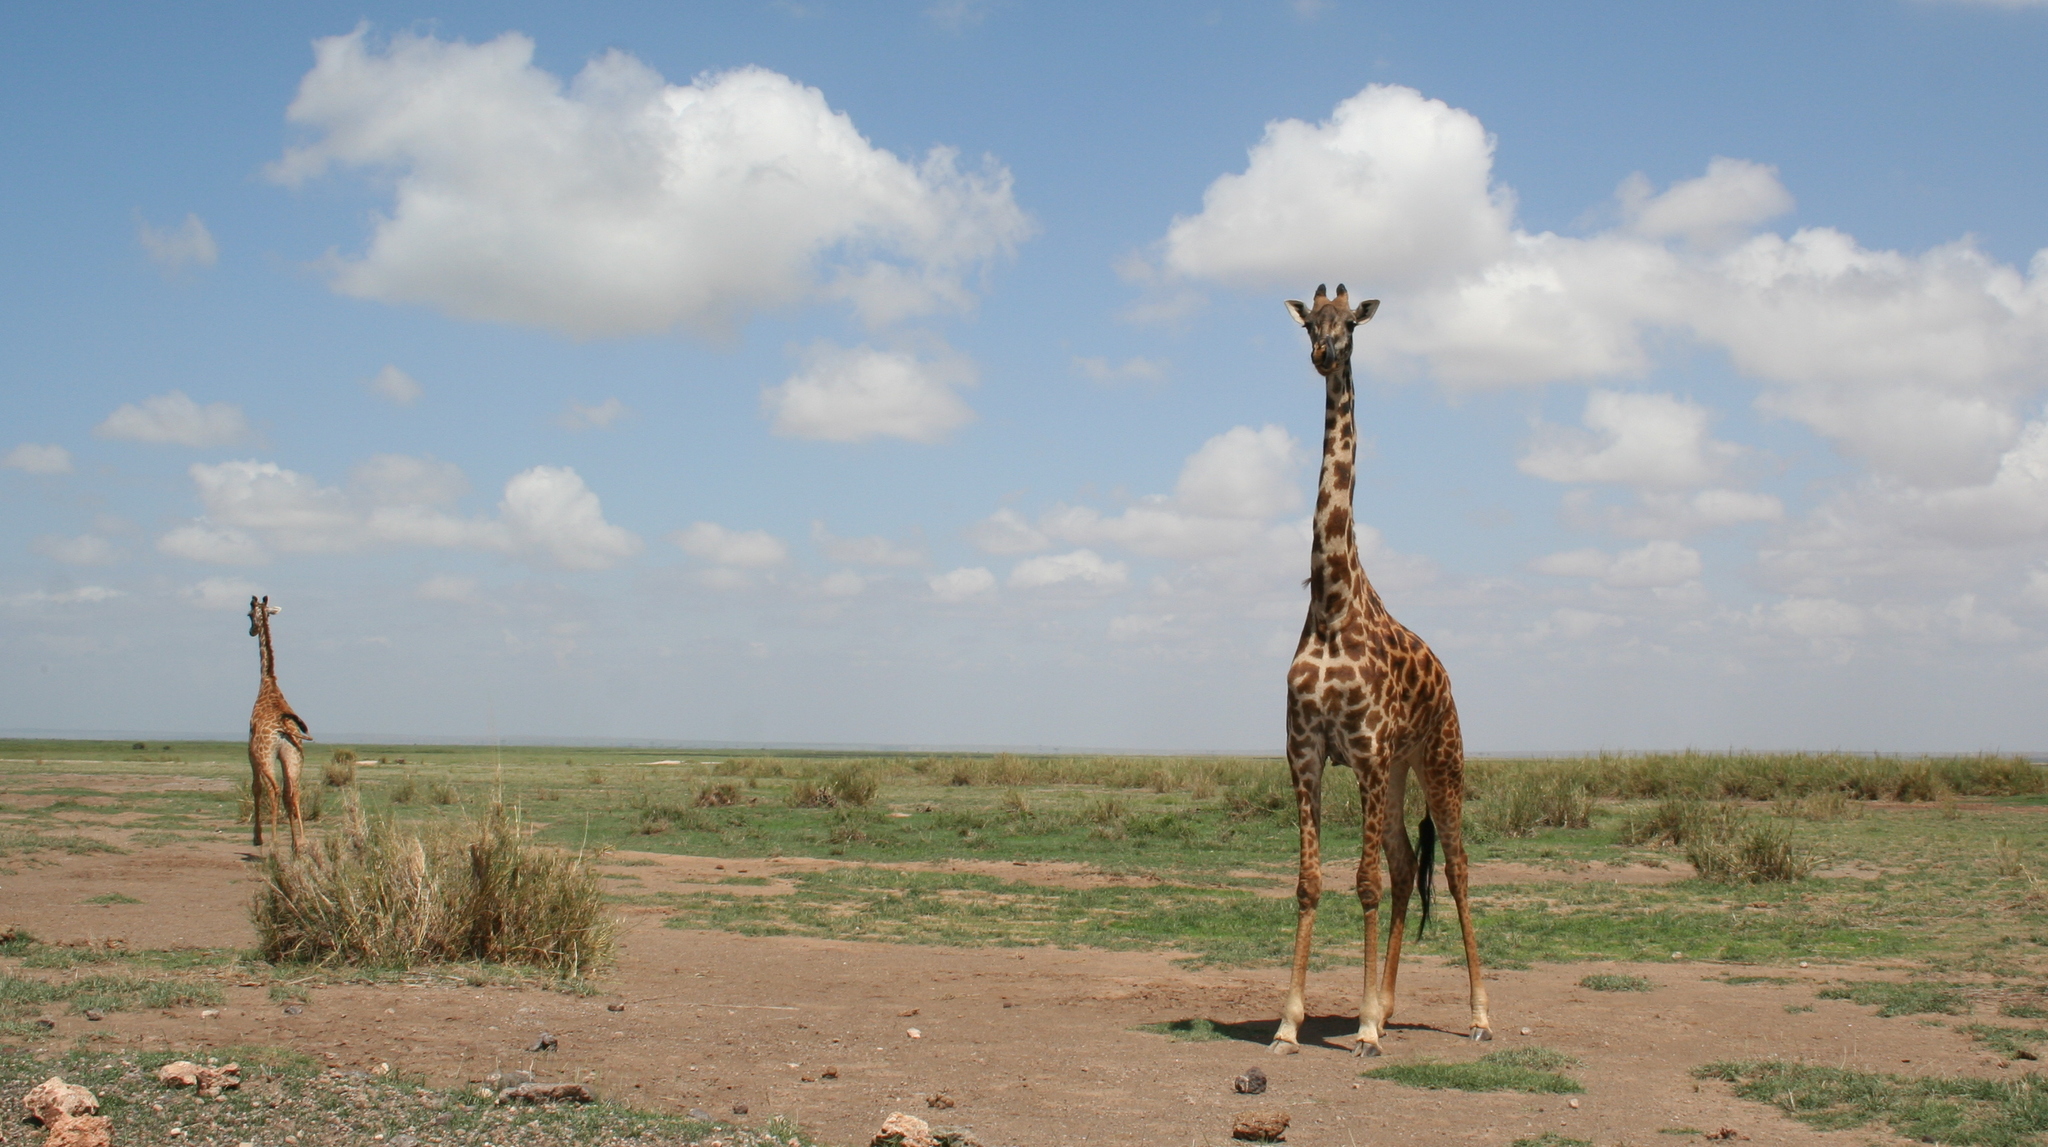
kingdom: Animalia
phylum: Chordata
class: Mammalia
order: Artiodactyla
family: Giraffidae
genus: Giraffa
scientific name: Giraffa tippelskirchi
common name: Masai giraffe
